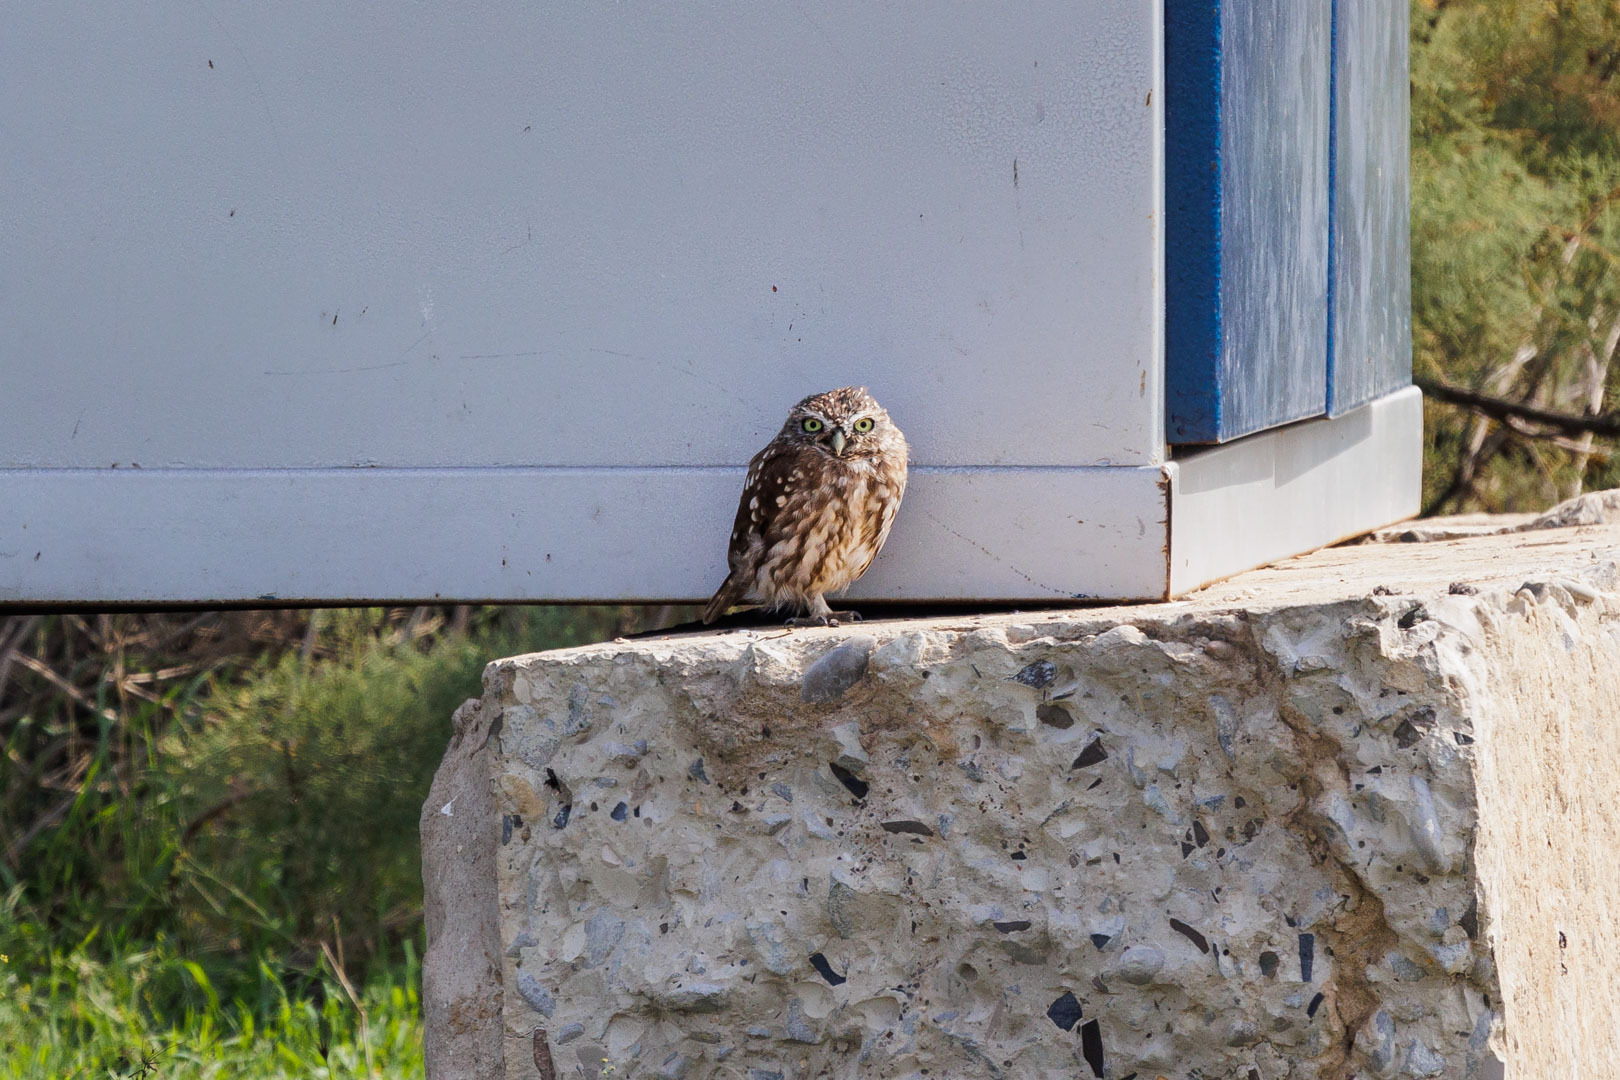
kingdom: Animalia
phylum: Chordata
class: Aves
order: Strigiformes
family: Strigidae
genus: Athene
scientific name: Athene noctua
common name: Little owl
